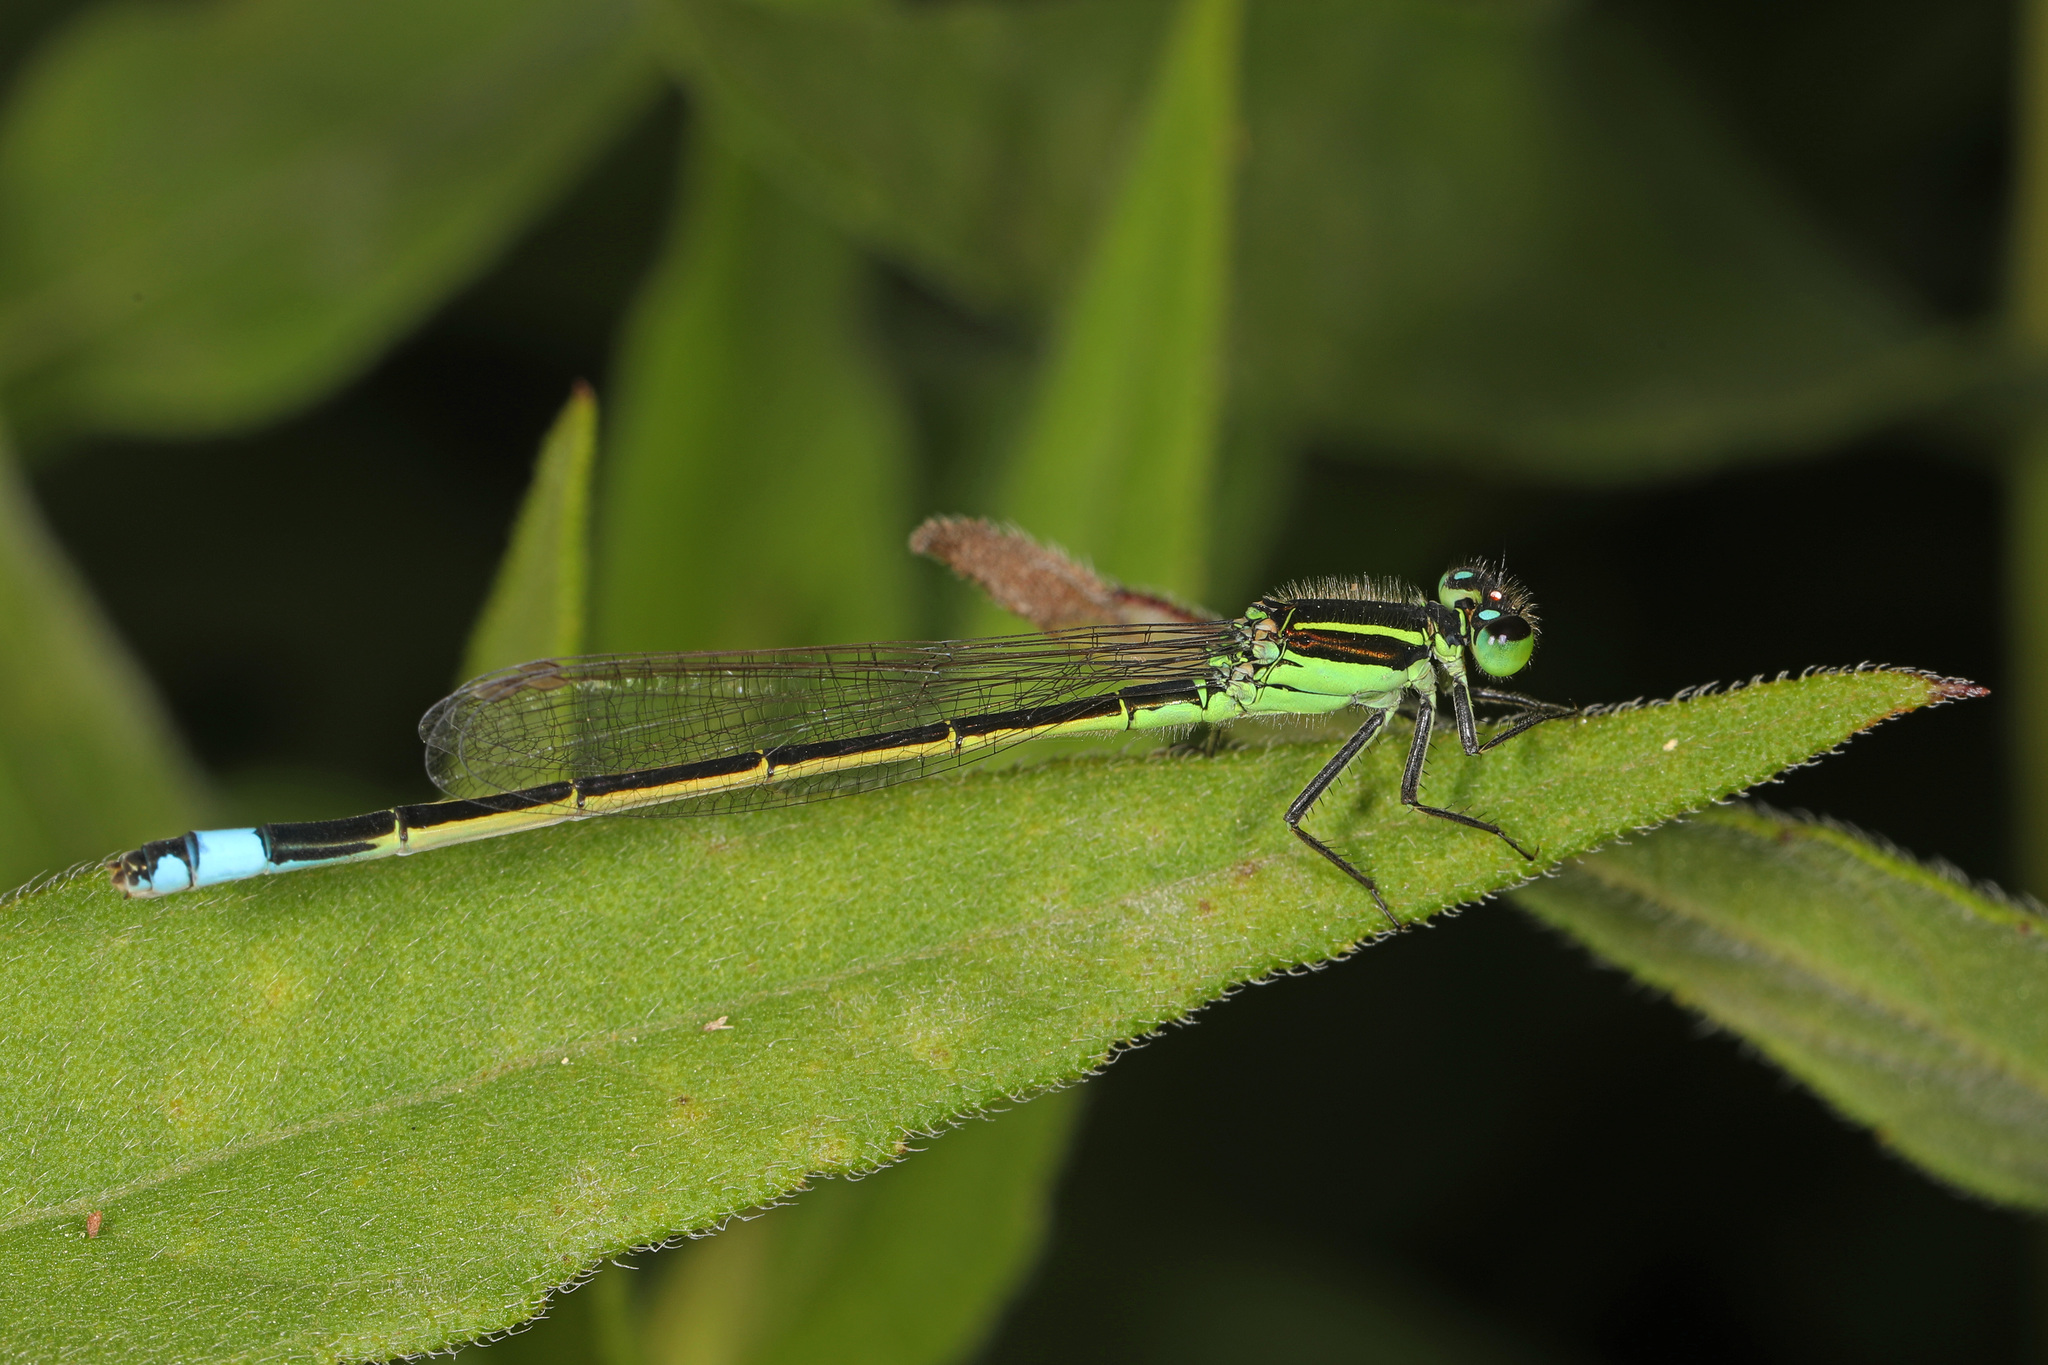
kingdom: Animalia
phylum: Arthropoda
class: Insecta
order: Odonata
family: Coenagrionidae
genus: Ischnura
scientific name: Ischnura ramburii
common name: Rambur's forktail
